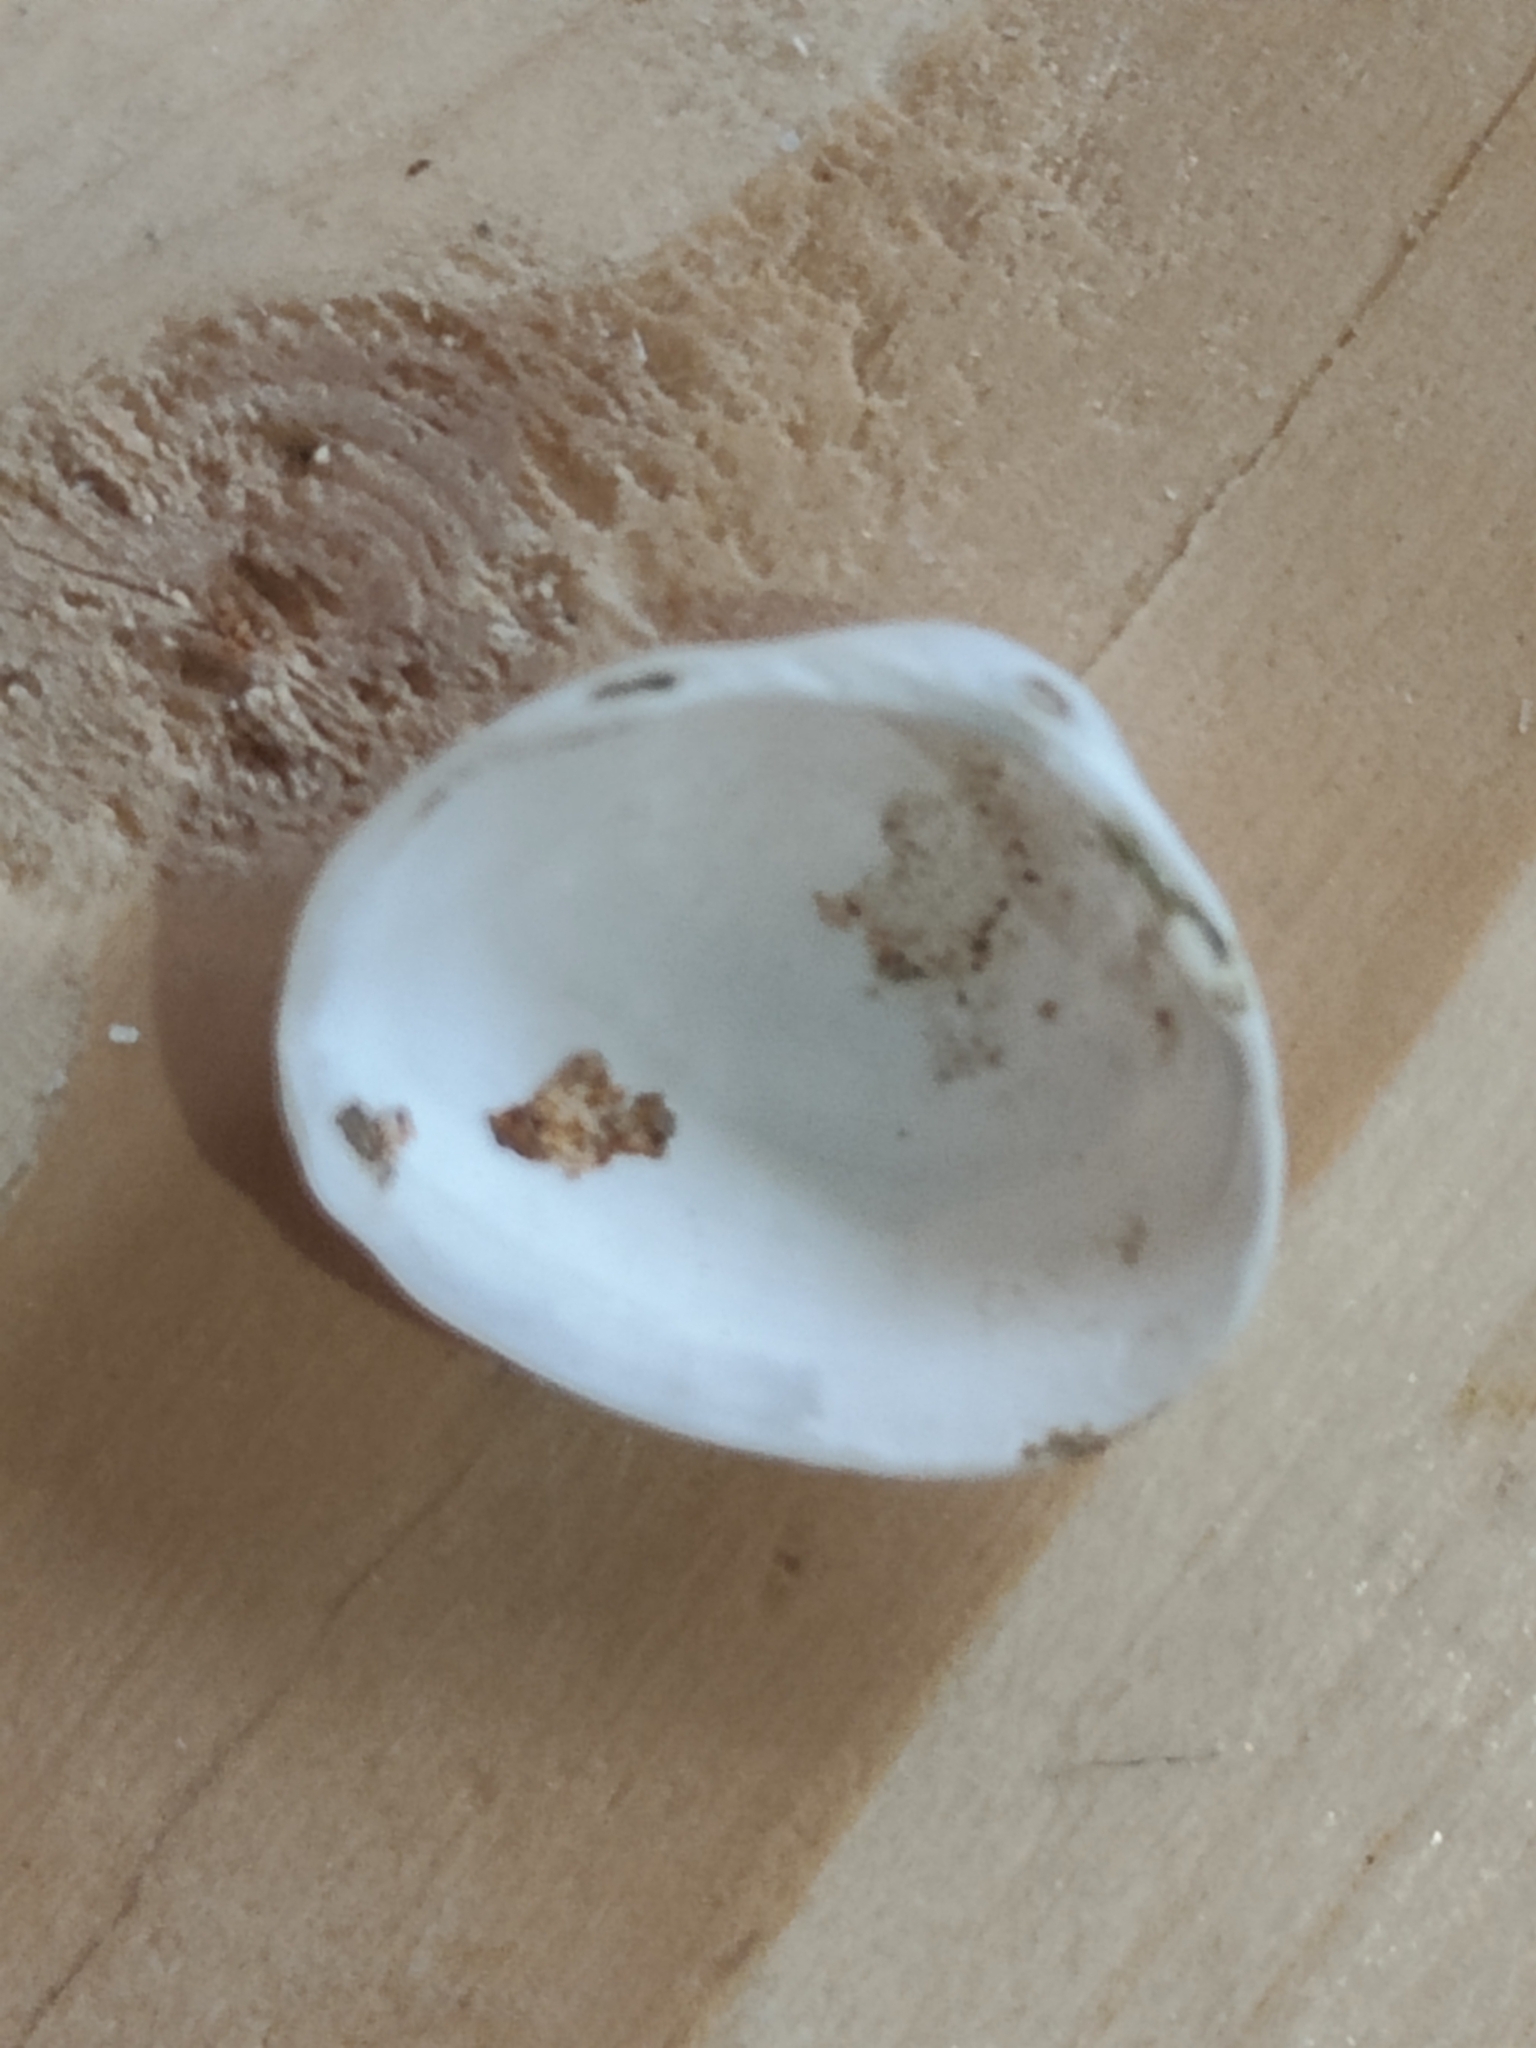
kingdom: Animalia
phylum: Mollusca
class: Bivalvia
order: Sphaeriida
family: Sphaeriidae
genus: Sphaerium
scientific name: Sphaerium striatinum
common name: Striated fingernailclam
